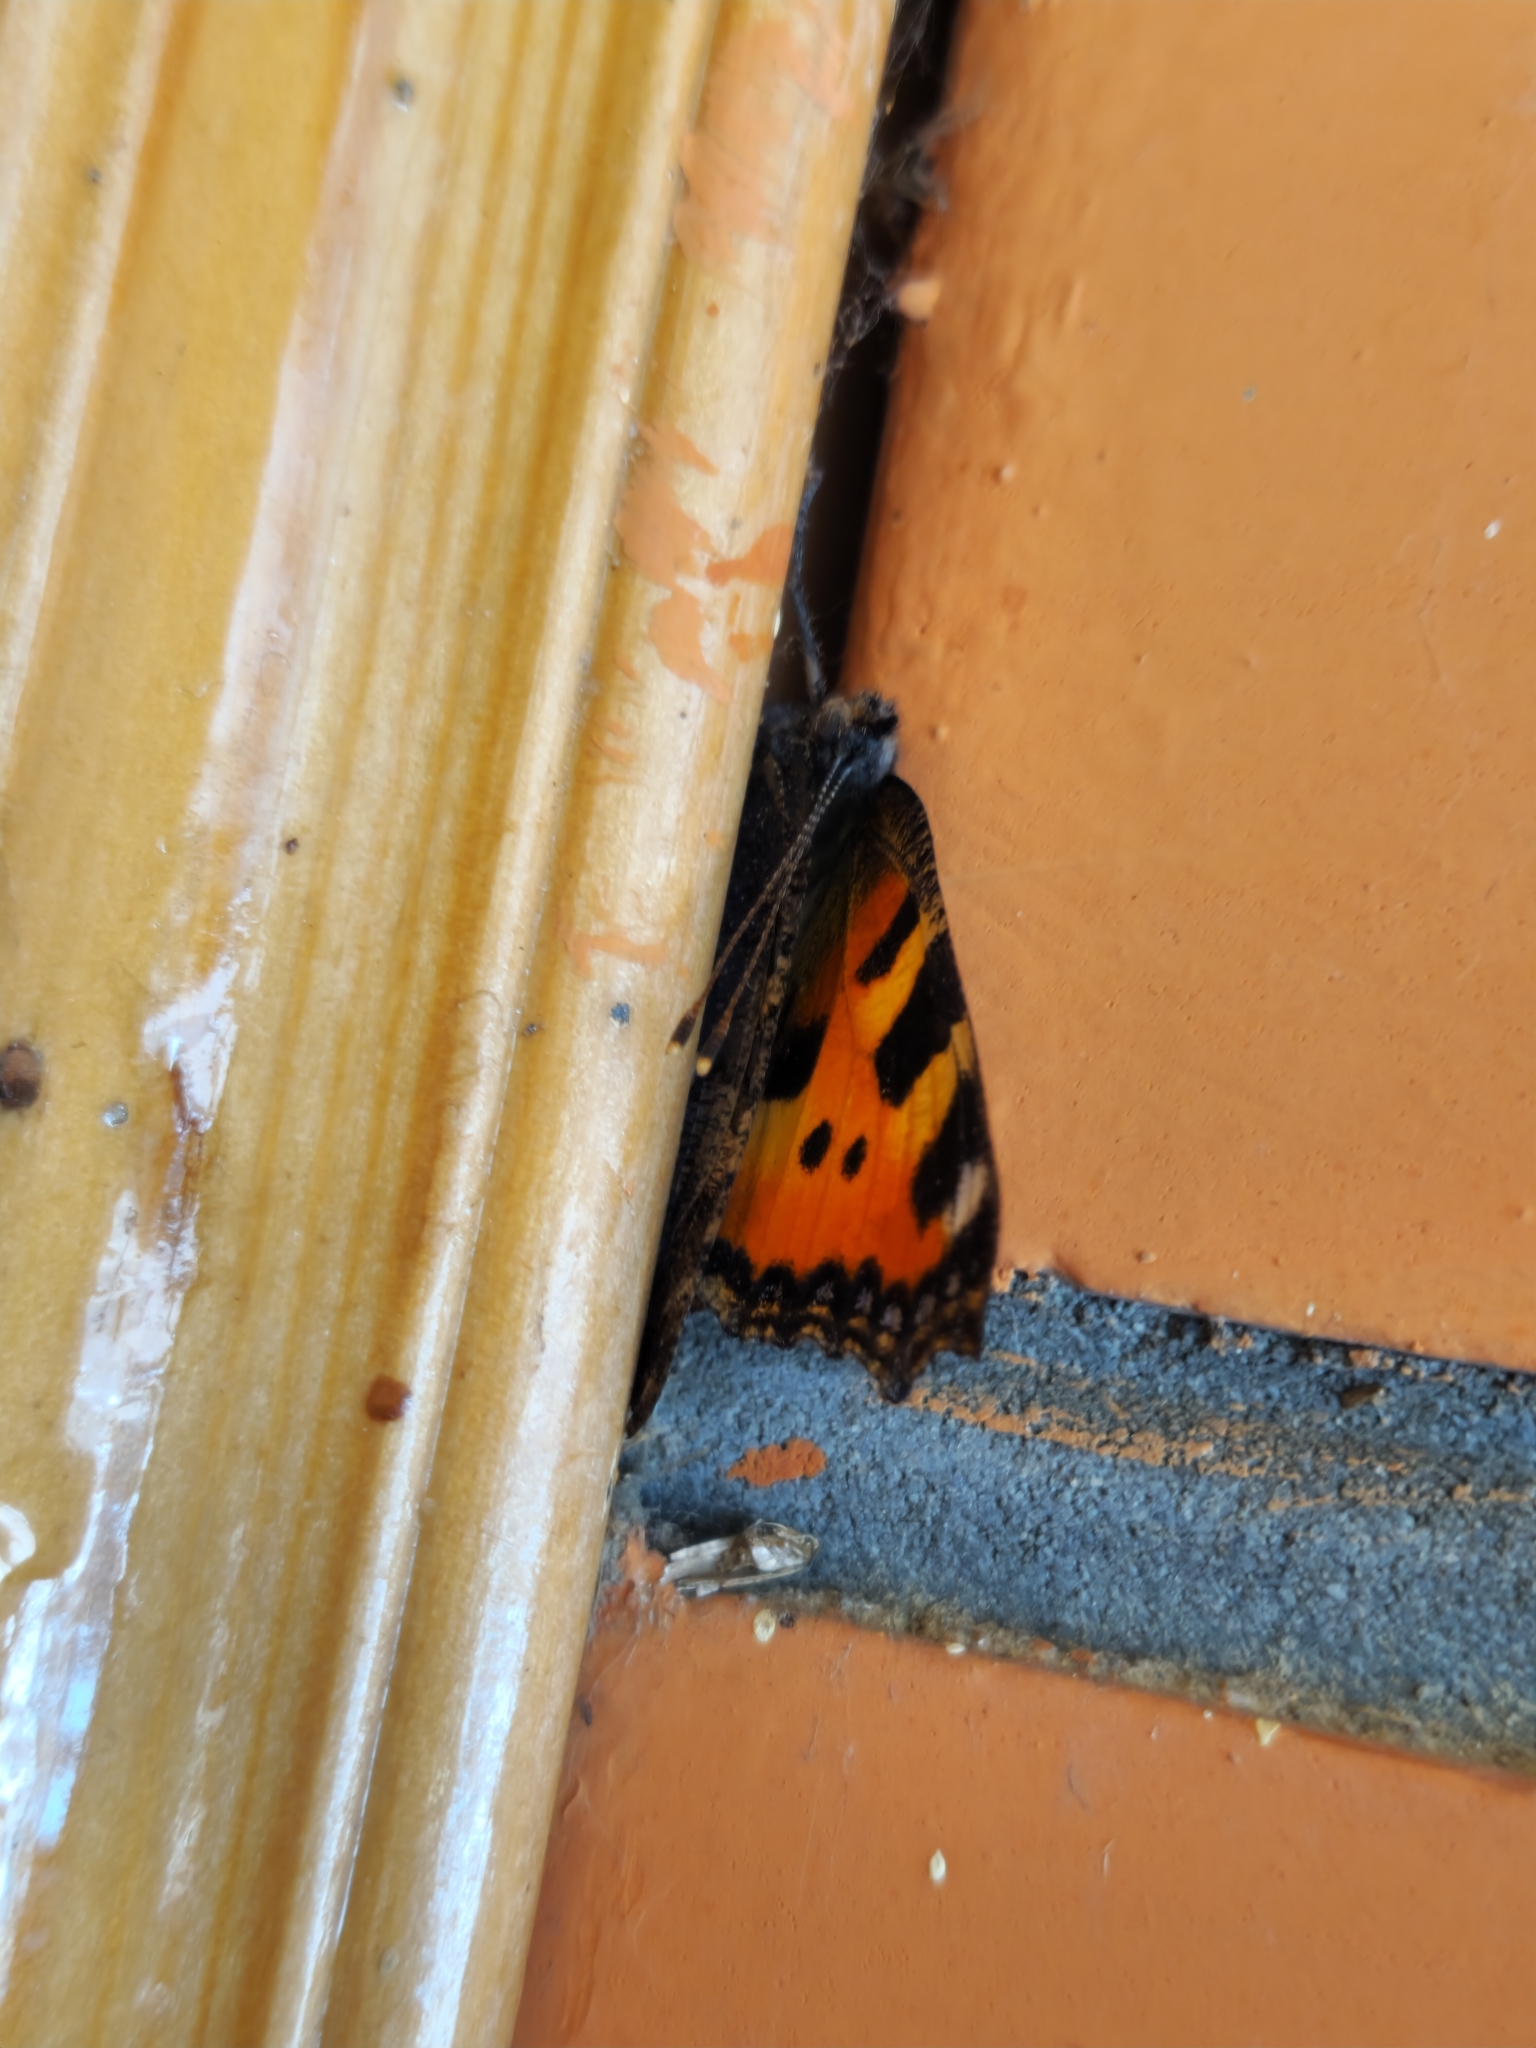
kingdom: Animalia
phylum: Arthropoda
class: Insecta
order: Lepidoptera
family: Nymphalidae
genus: Aglais
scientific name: Aglais urticae
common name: Small tortoiseshell
